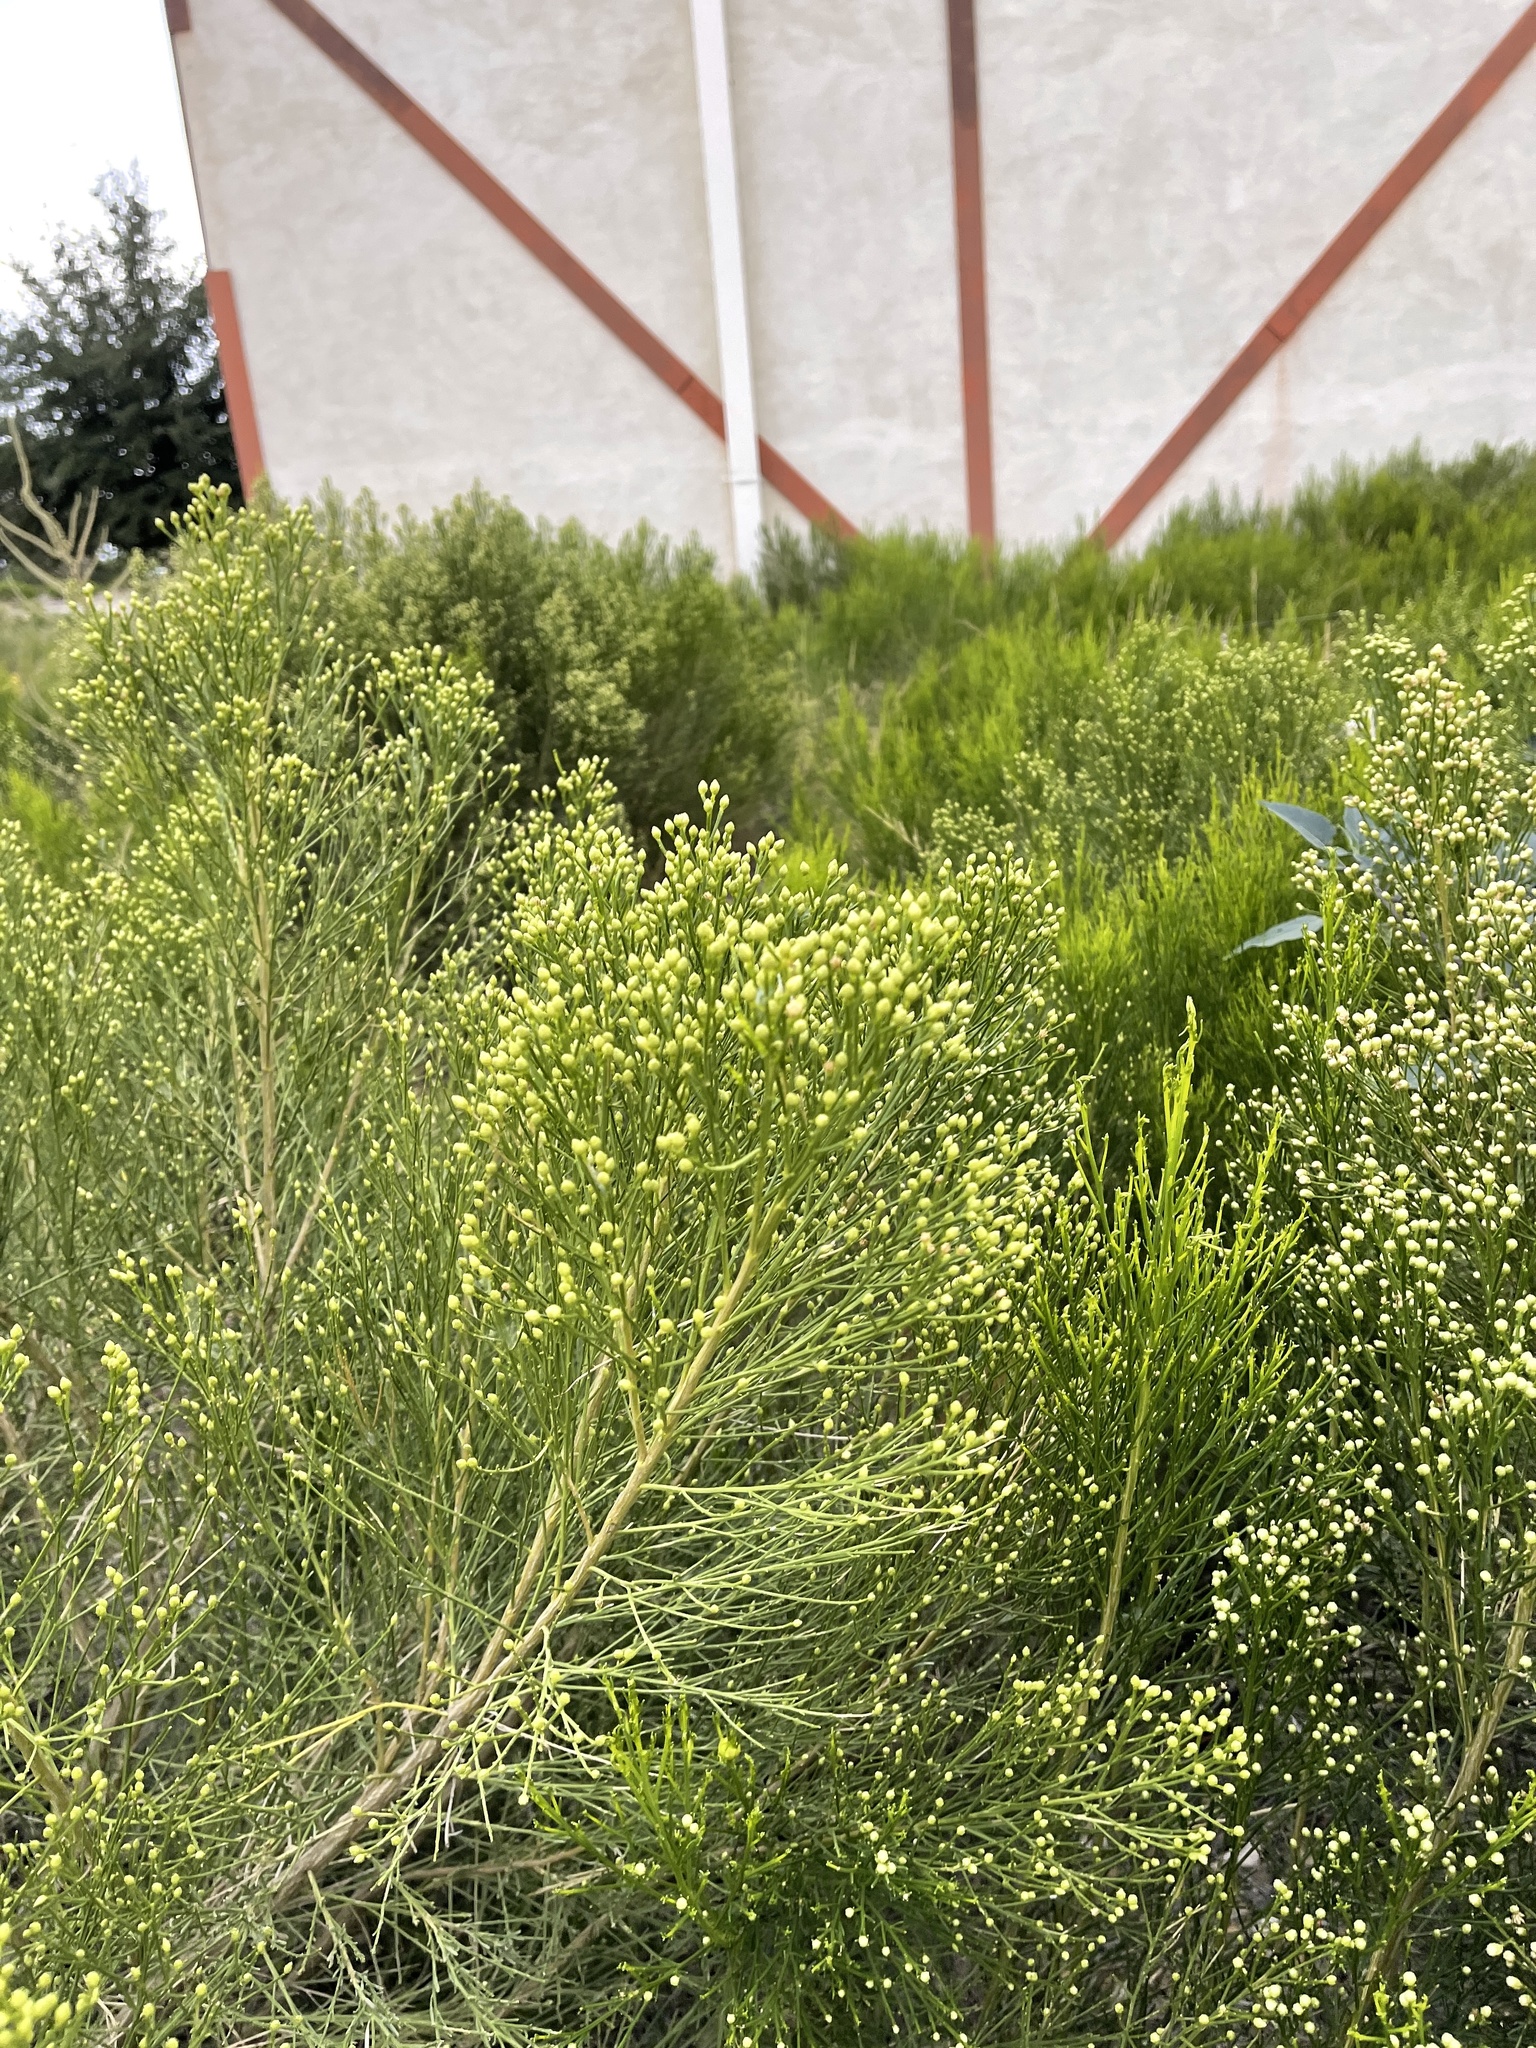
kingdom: Plantae
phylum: Tracheophyta
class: Magnoliopsida
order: Asterales
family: Asteraceae
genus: Baccharis
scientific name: Baccharis sarothroides
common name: Desert-broom
